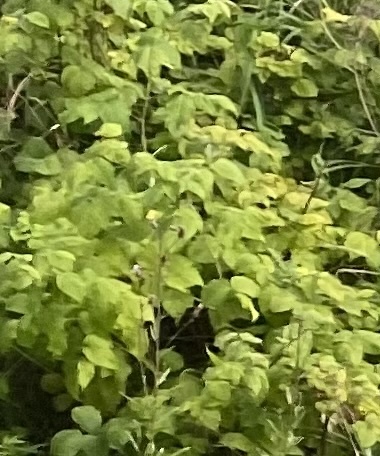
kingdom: Plantae
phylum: Tracheophyta
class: Magnoliopsida
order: Rosales
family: Rosaceae
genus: Rubus
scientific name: Rubus sachalinensis
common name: Red raspberry
